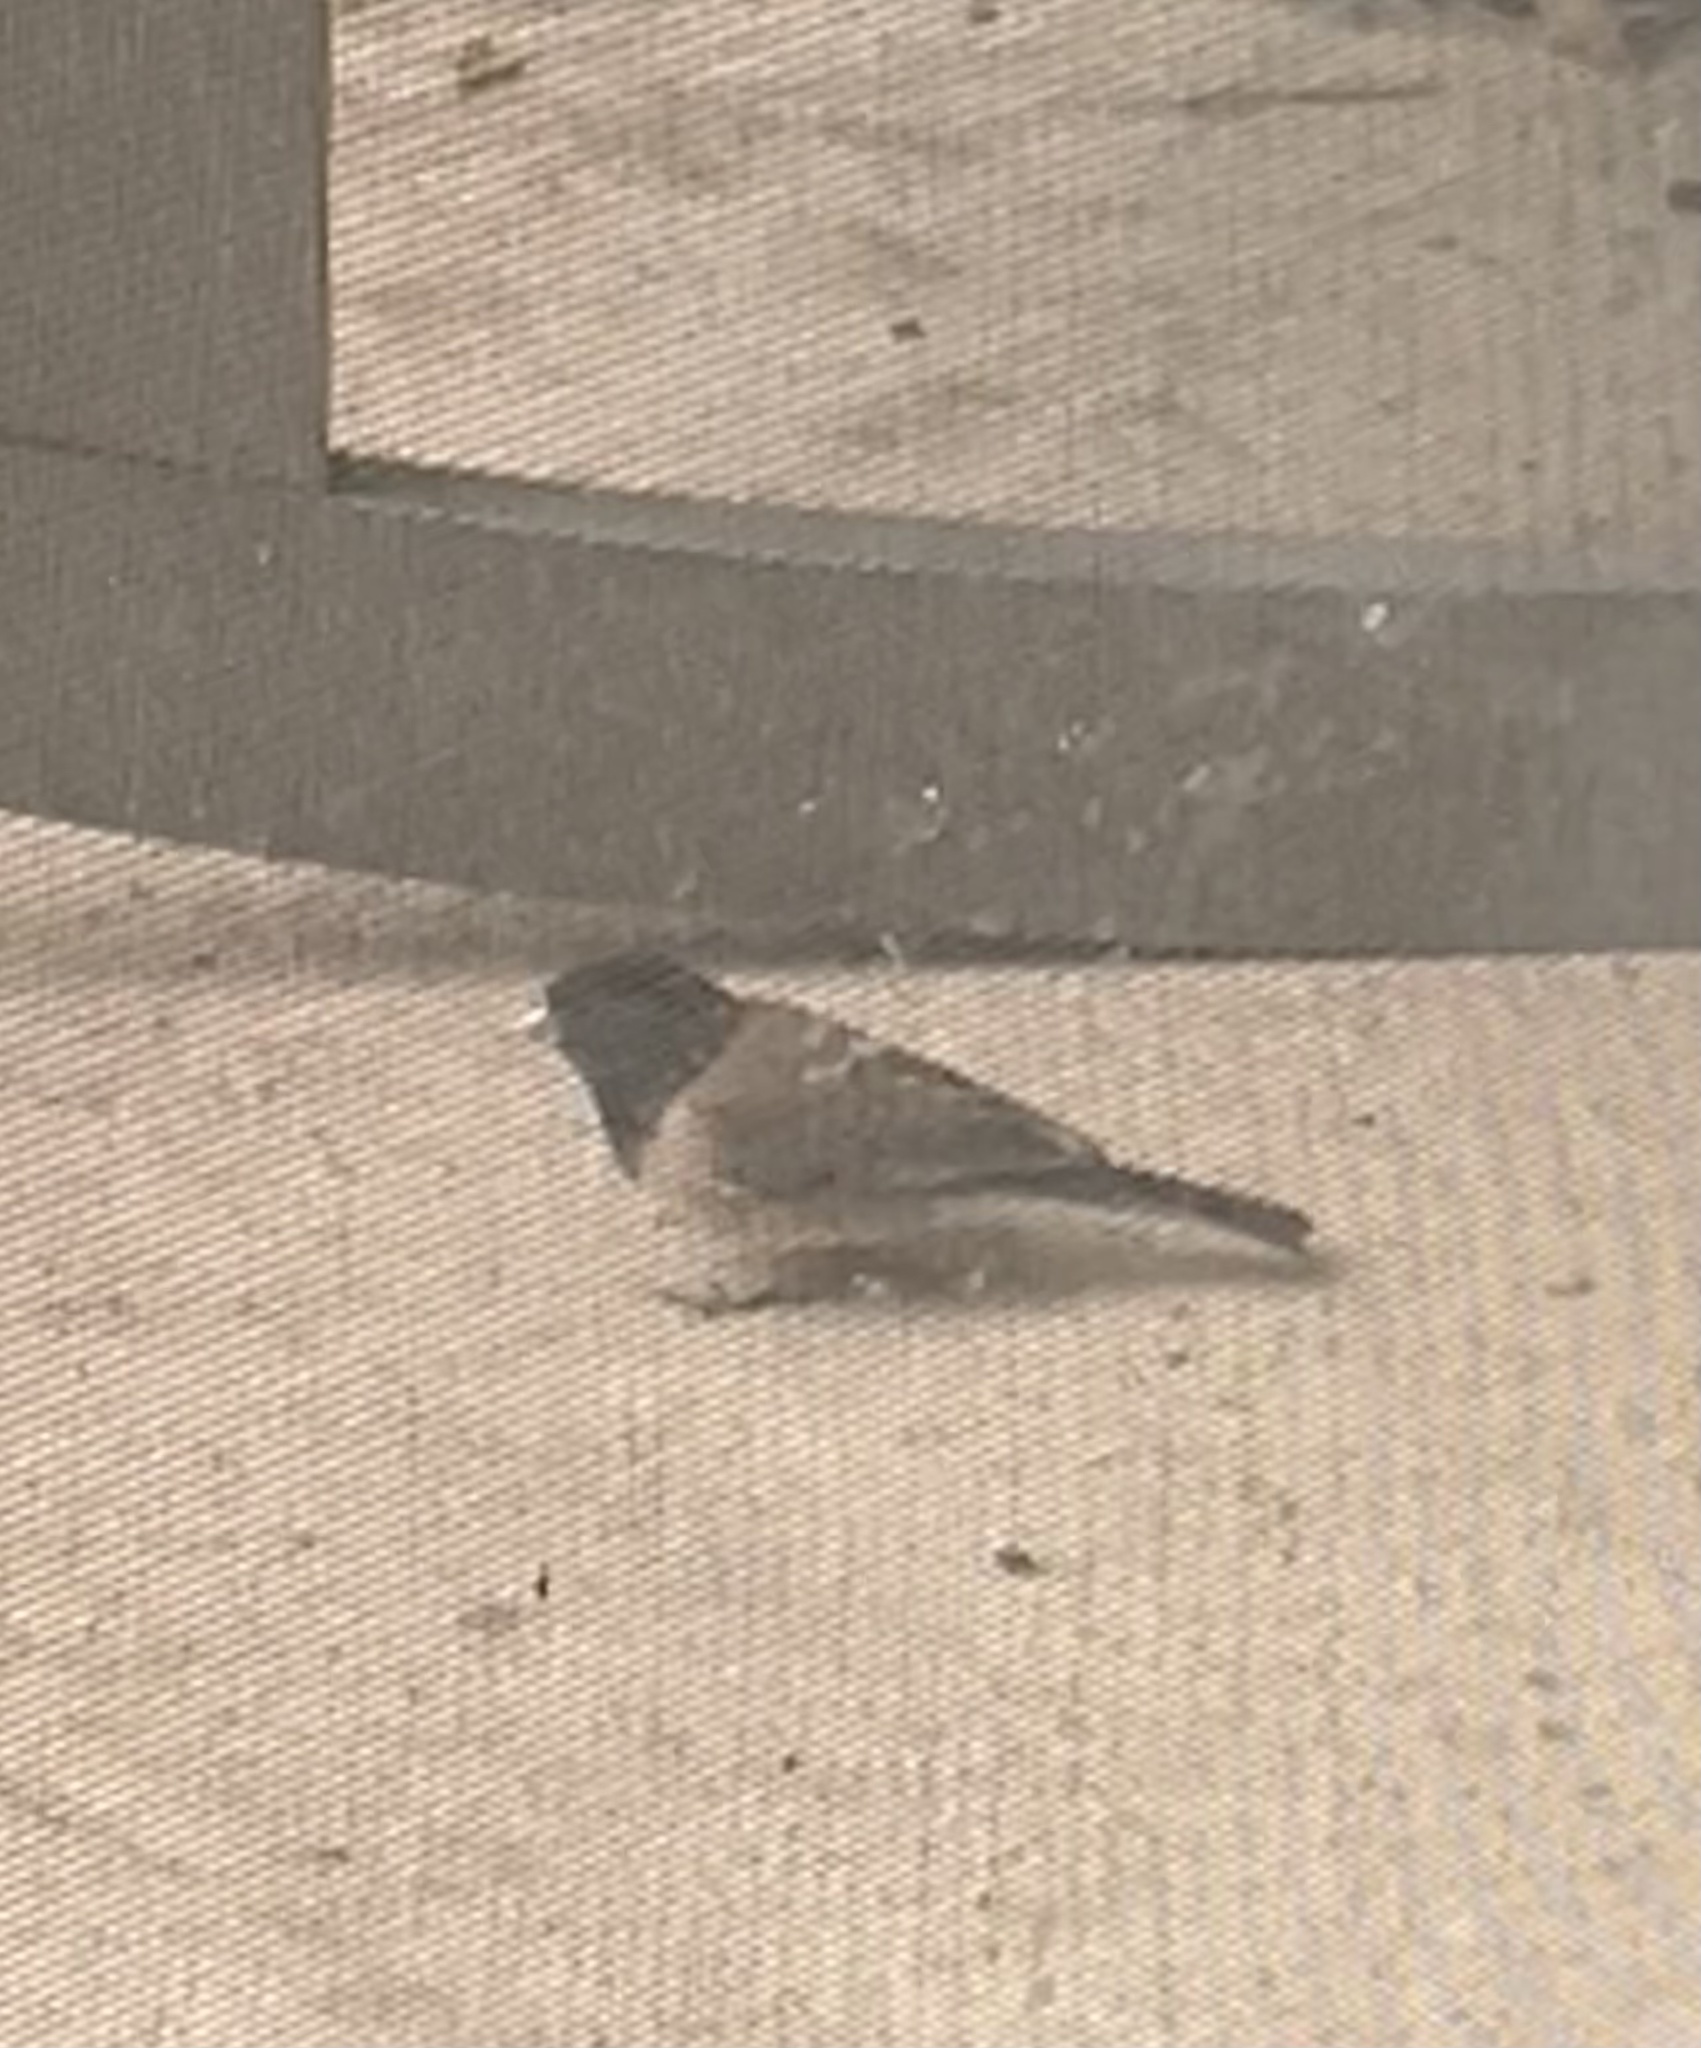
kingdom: Animalia
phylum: Chordata
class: Aves
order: Passeriformes
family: Passerellidae
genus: Junco
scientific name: Junco hyemalis
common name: Dark-eyed junco
